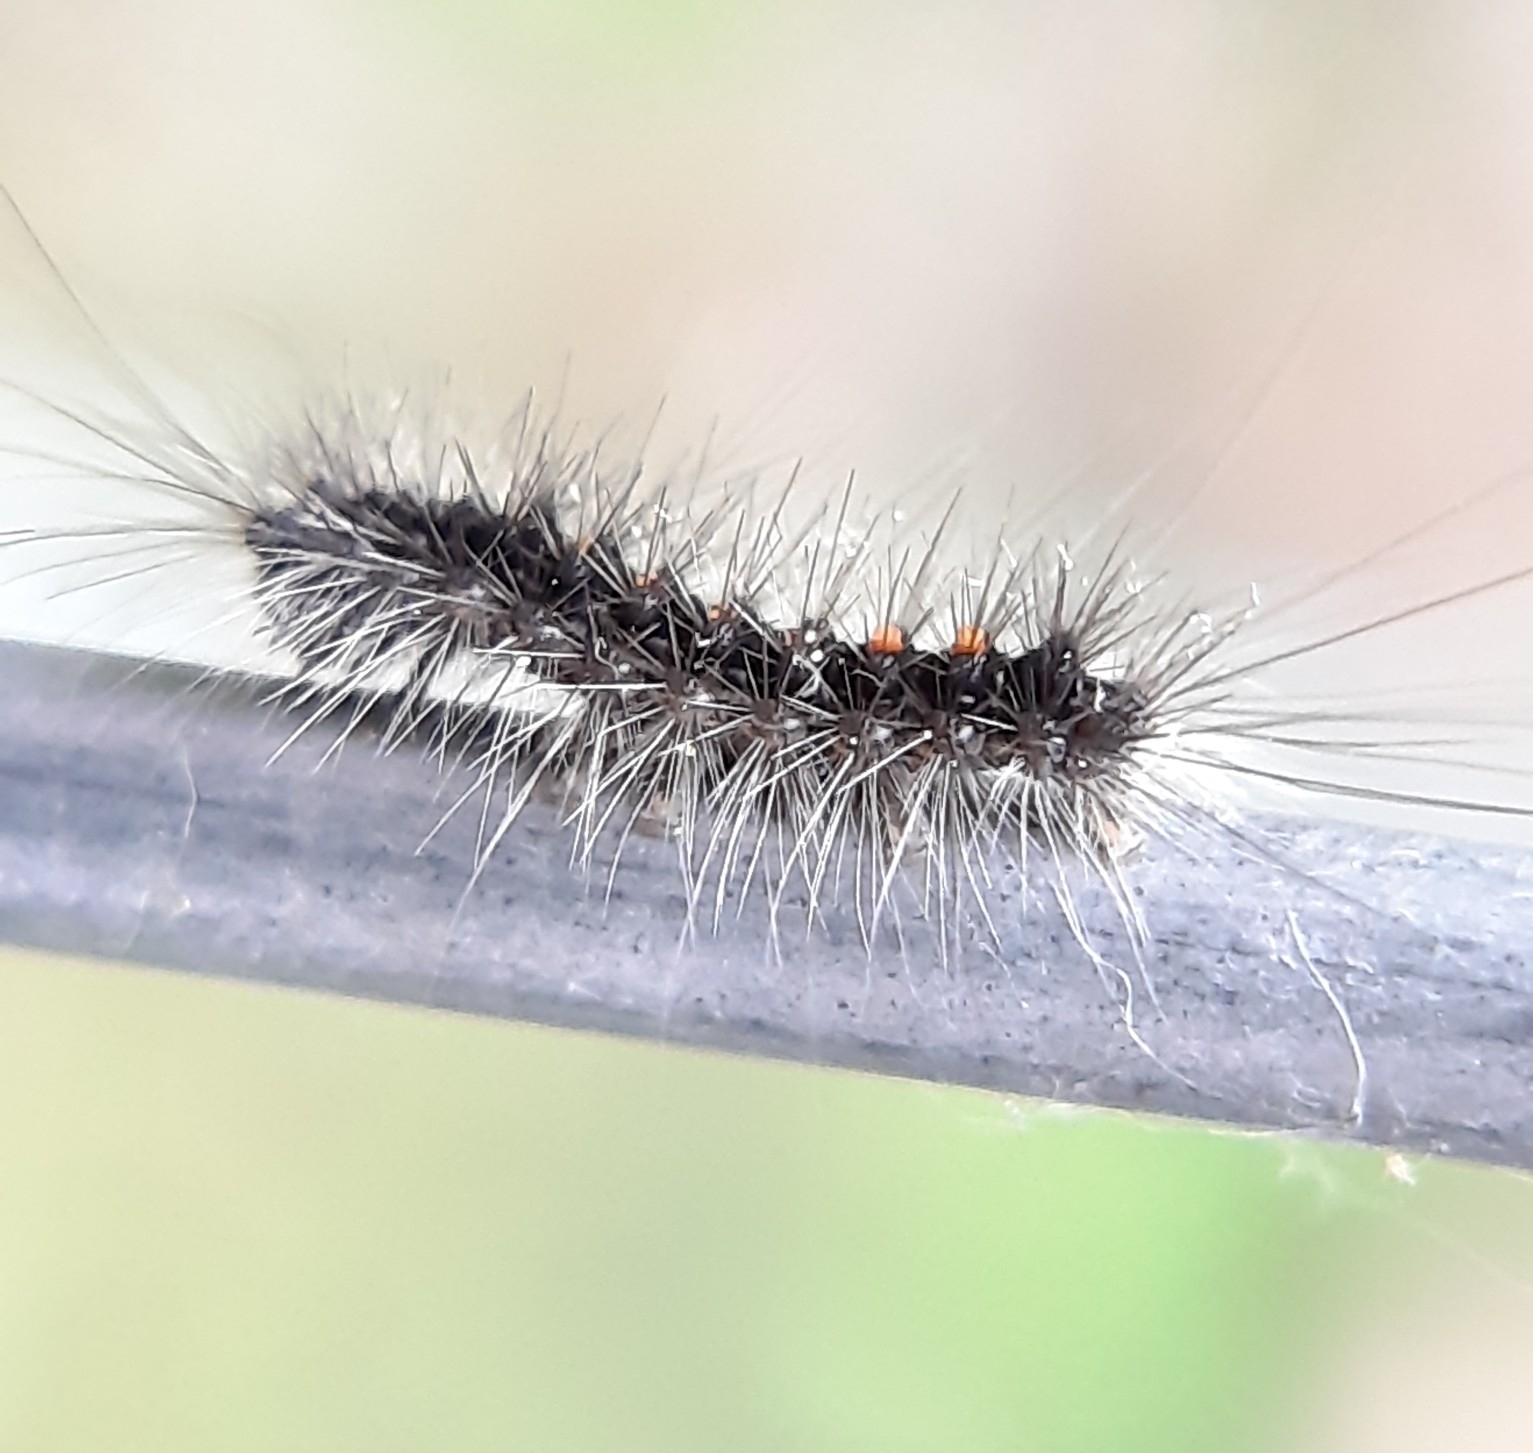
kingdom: Animalia
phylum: Arthropoda
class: Insecta
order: Lepidoptera
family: Erebidae
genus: Lymantria
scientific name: Lymantria dispar
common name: Gypsy moth
